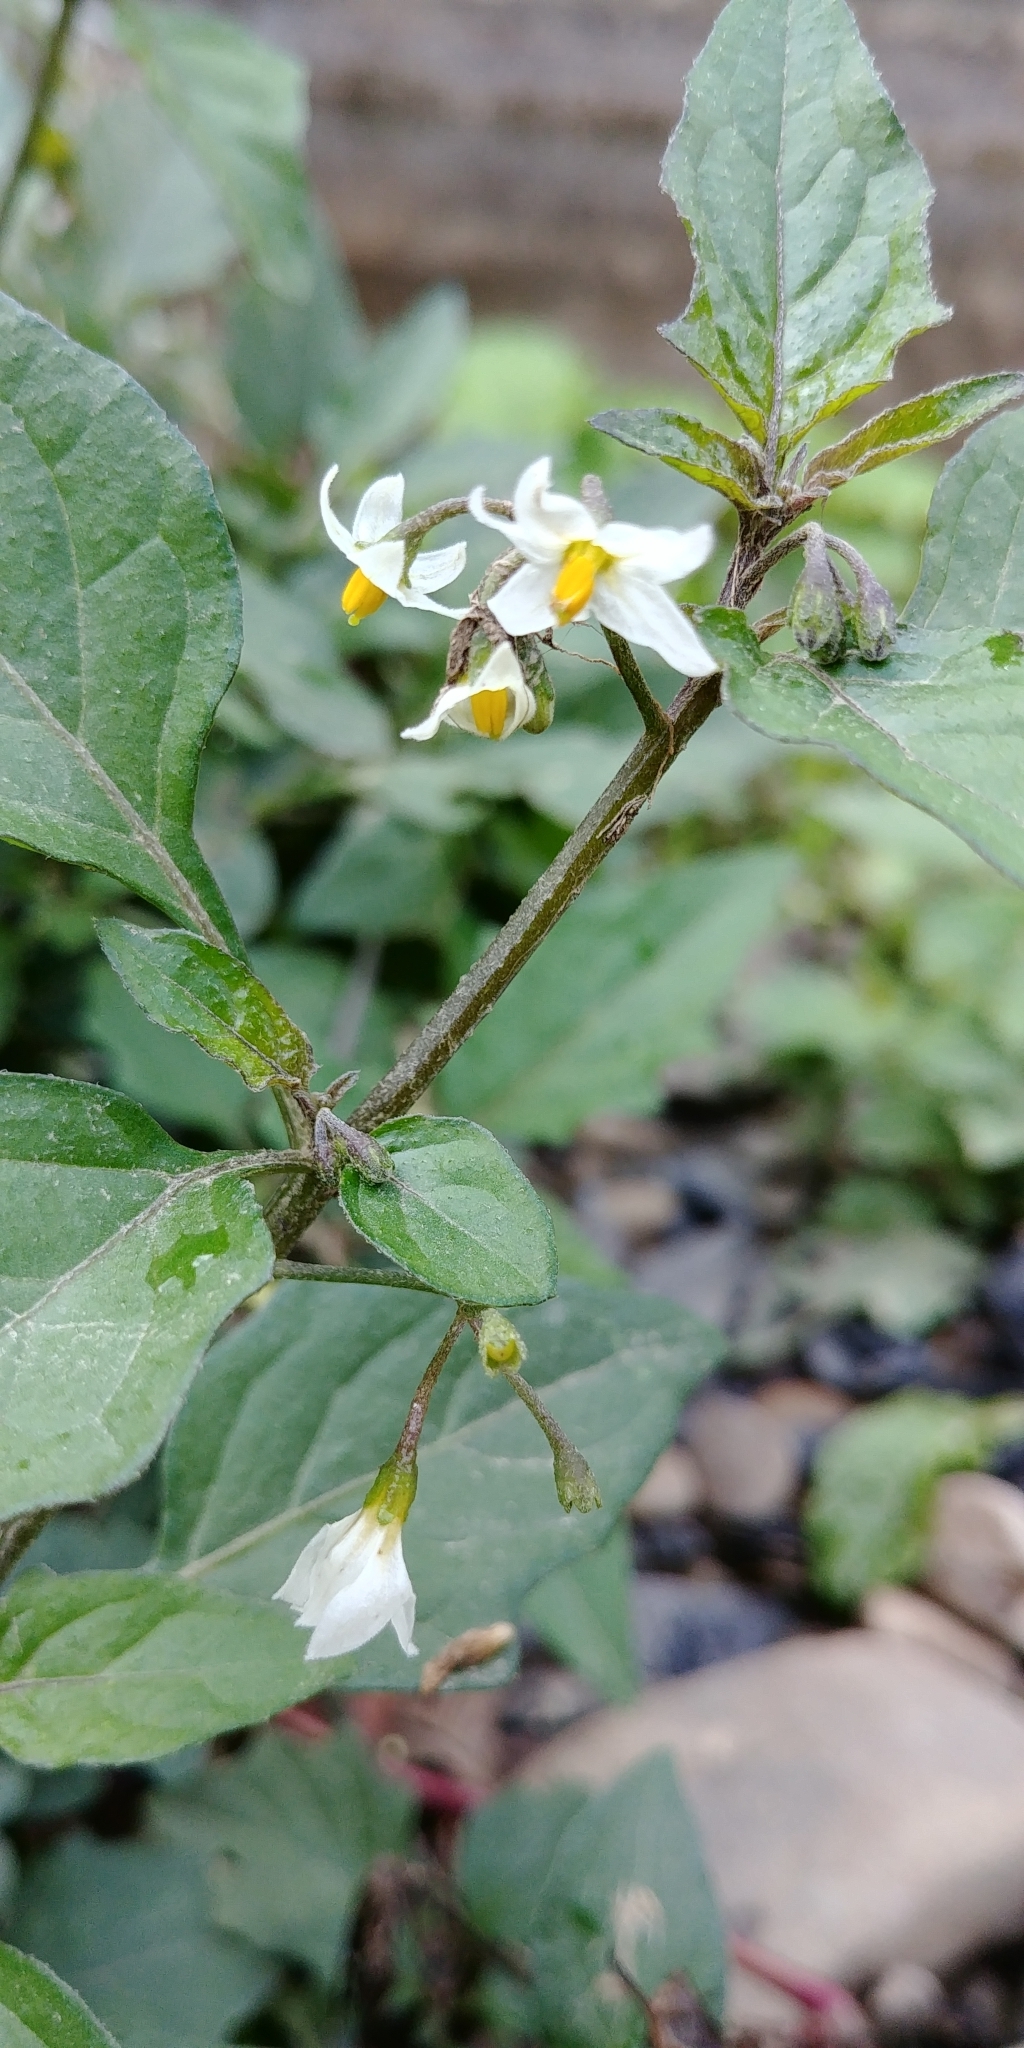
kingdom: Plantae
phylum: Tracheophyta
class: Magnoliopsida
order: Solanales
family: Solanaceae
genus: Solanum
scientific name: Solanum nigrum
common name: Black nightshade
